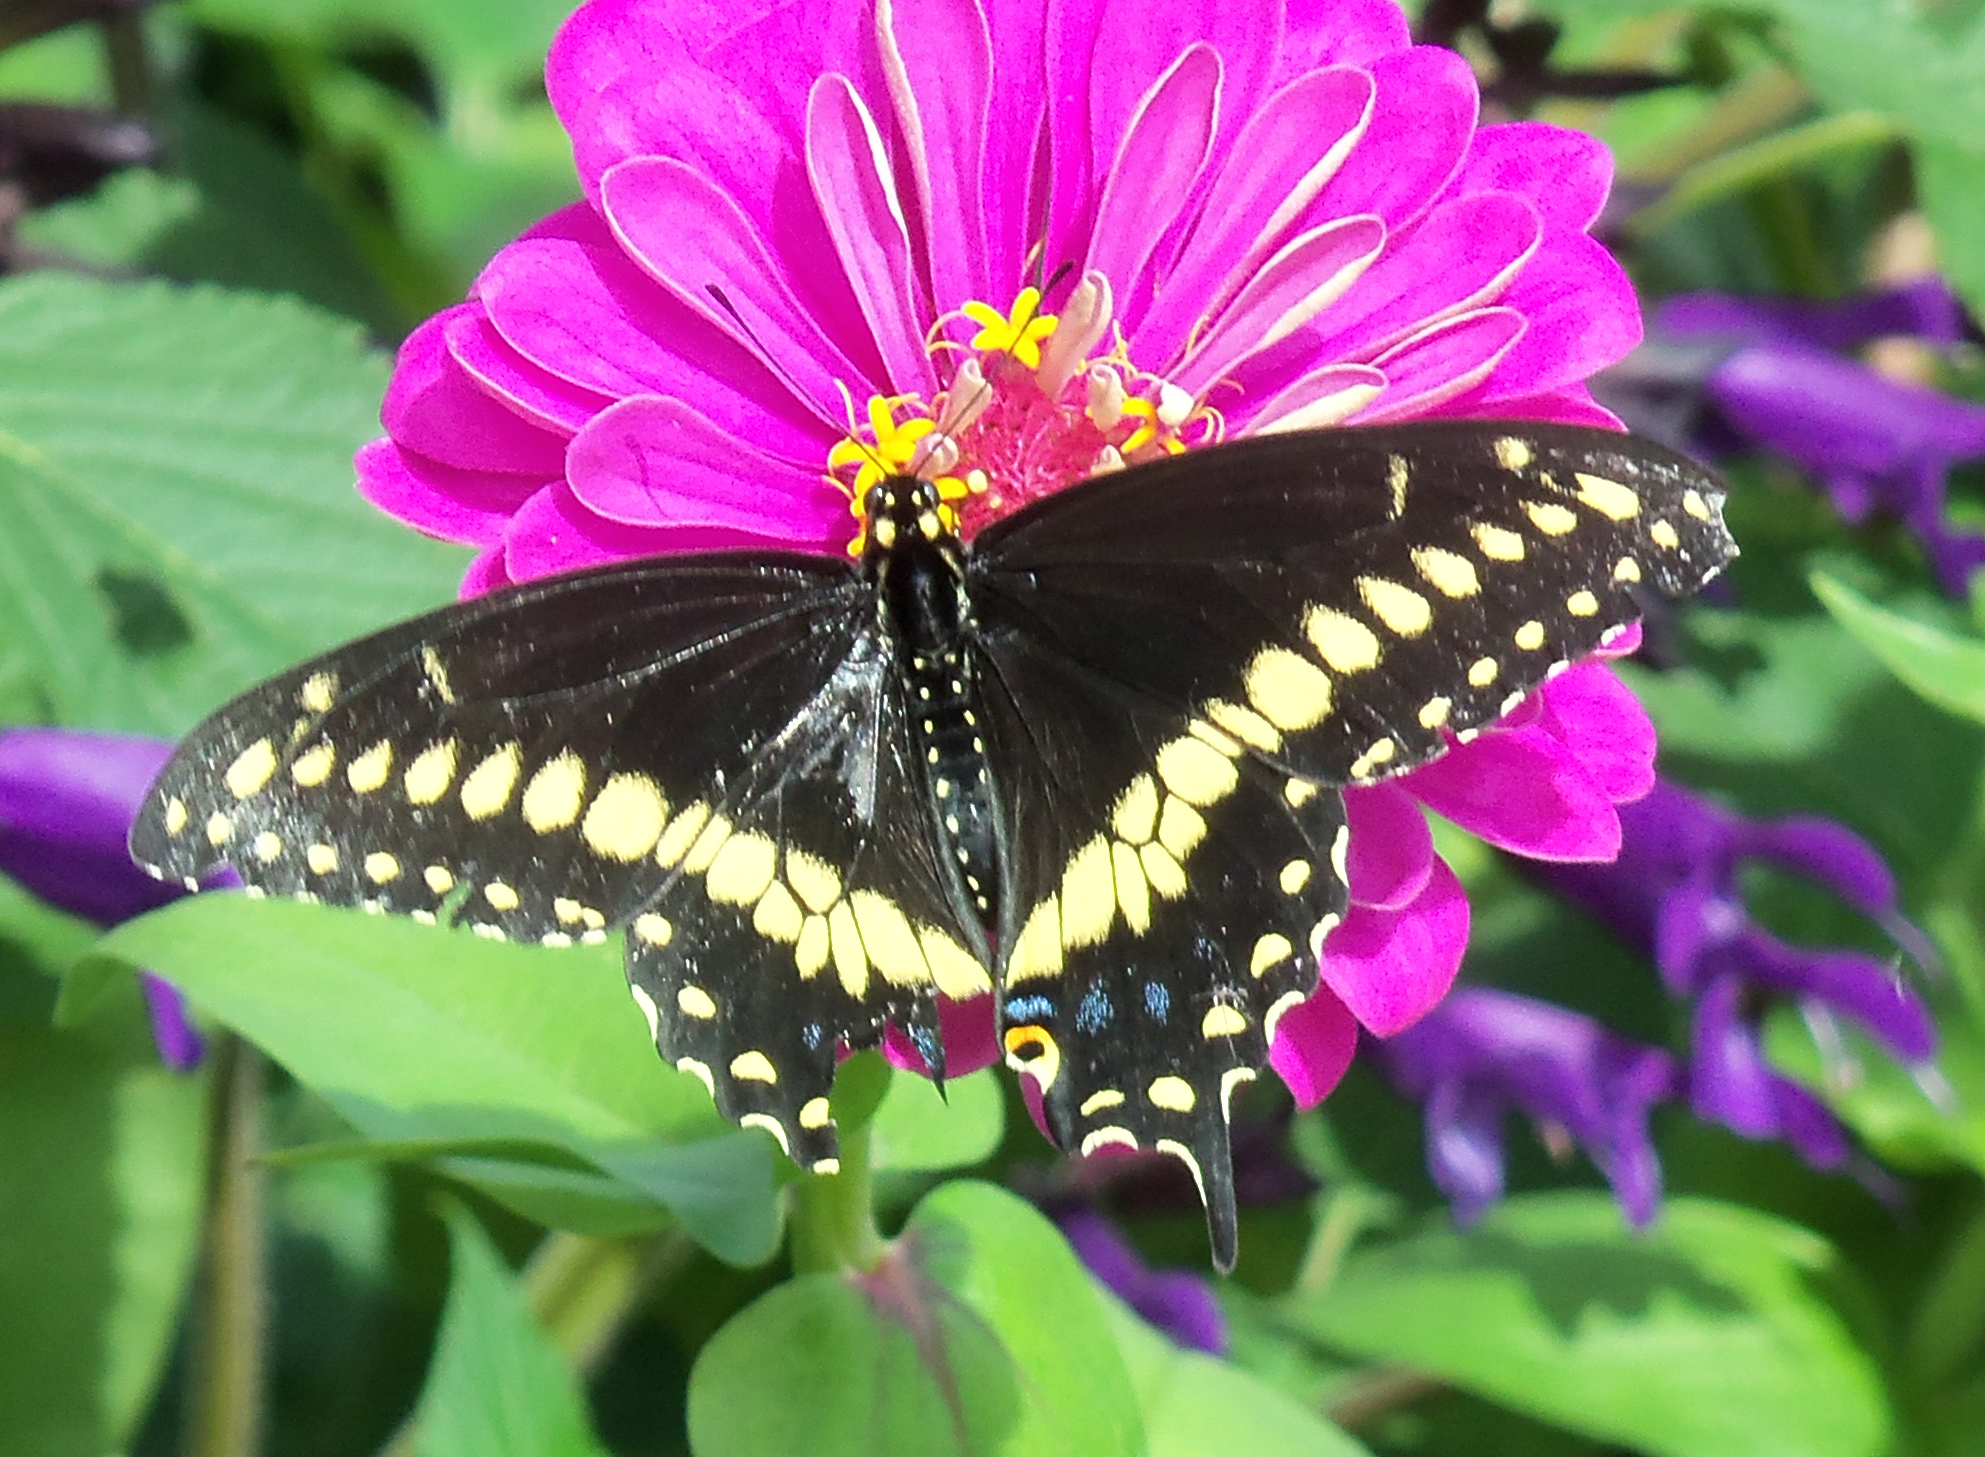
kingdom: Animalia
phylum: Arthropoda
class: Insecta
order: Lepidoptera
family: Papilionidae
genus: Papilio
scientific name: Papilio polyxenes
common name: Black swallowtail
